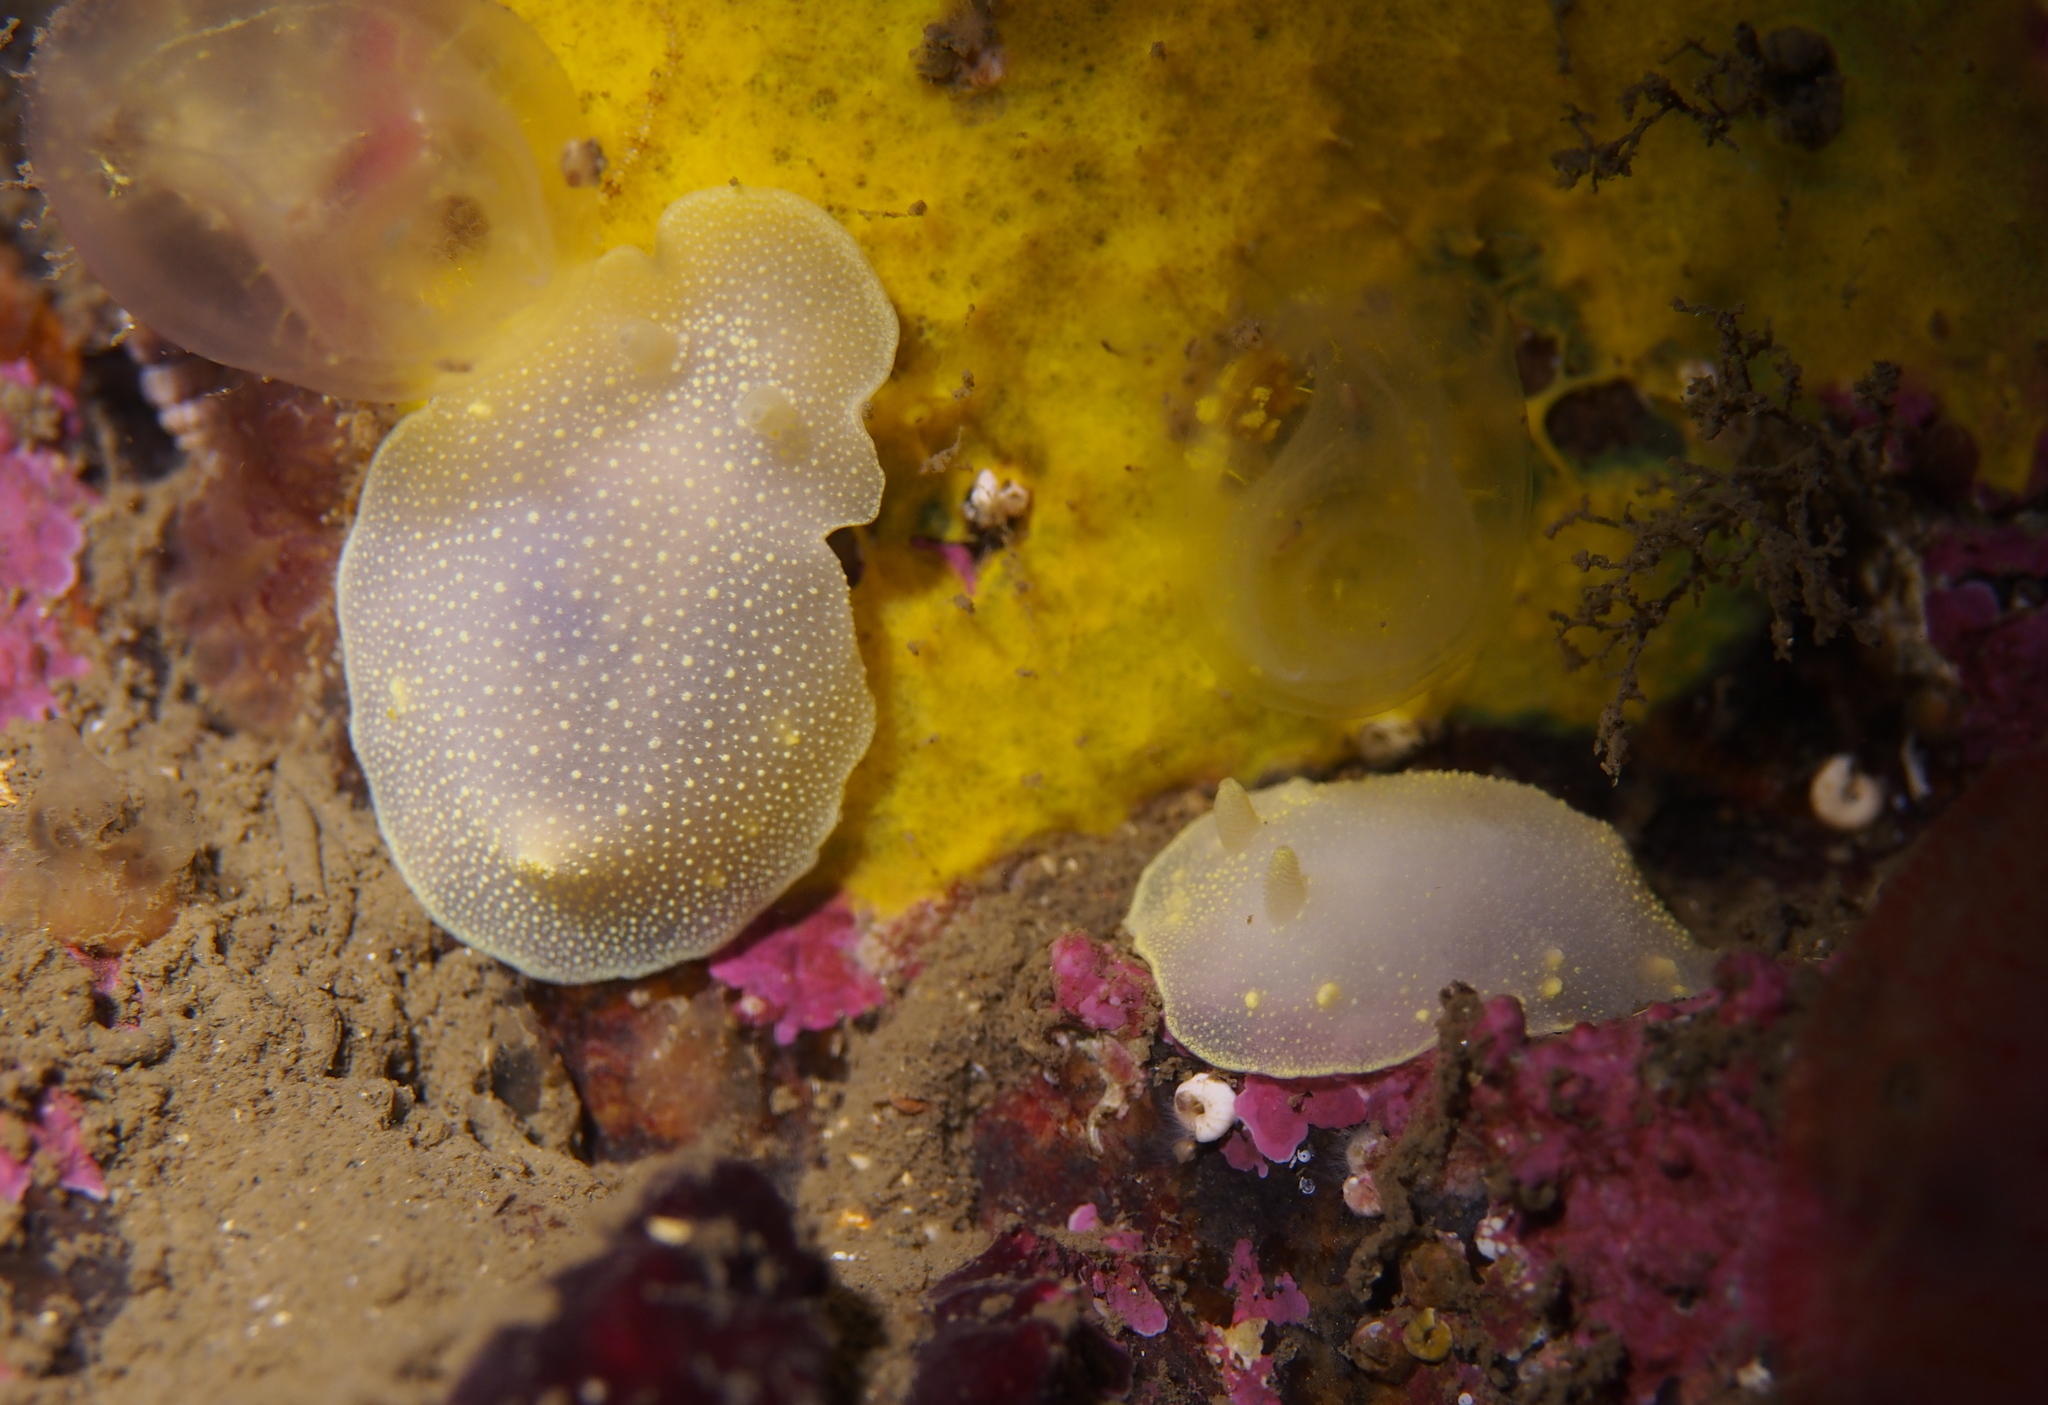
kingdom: Animalia
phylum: Mollusca
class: Gastropoda
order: Nudibranchia
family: Cadlinidae
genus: Cadlina
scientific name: Cadlina laevis
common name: White atlantic cadlina
